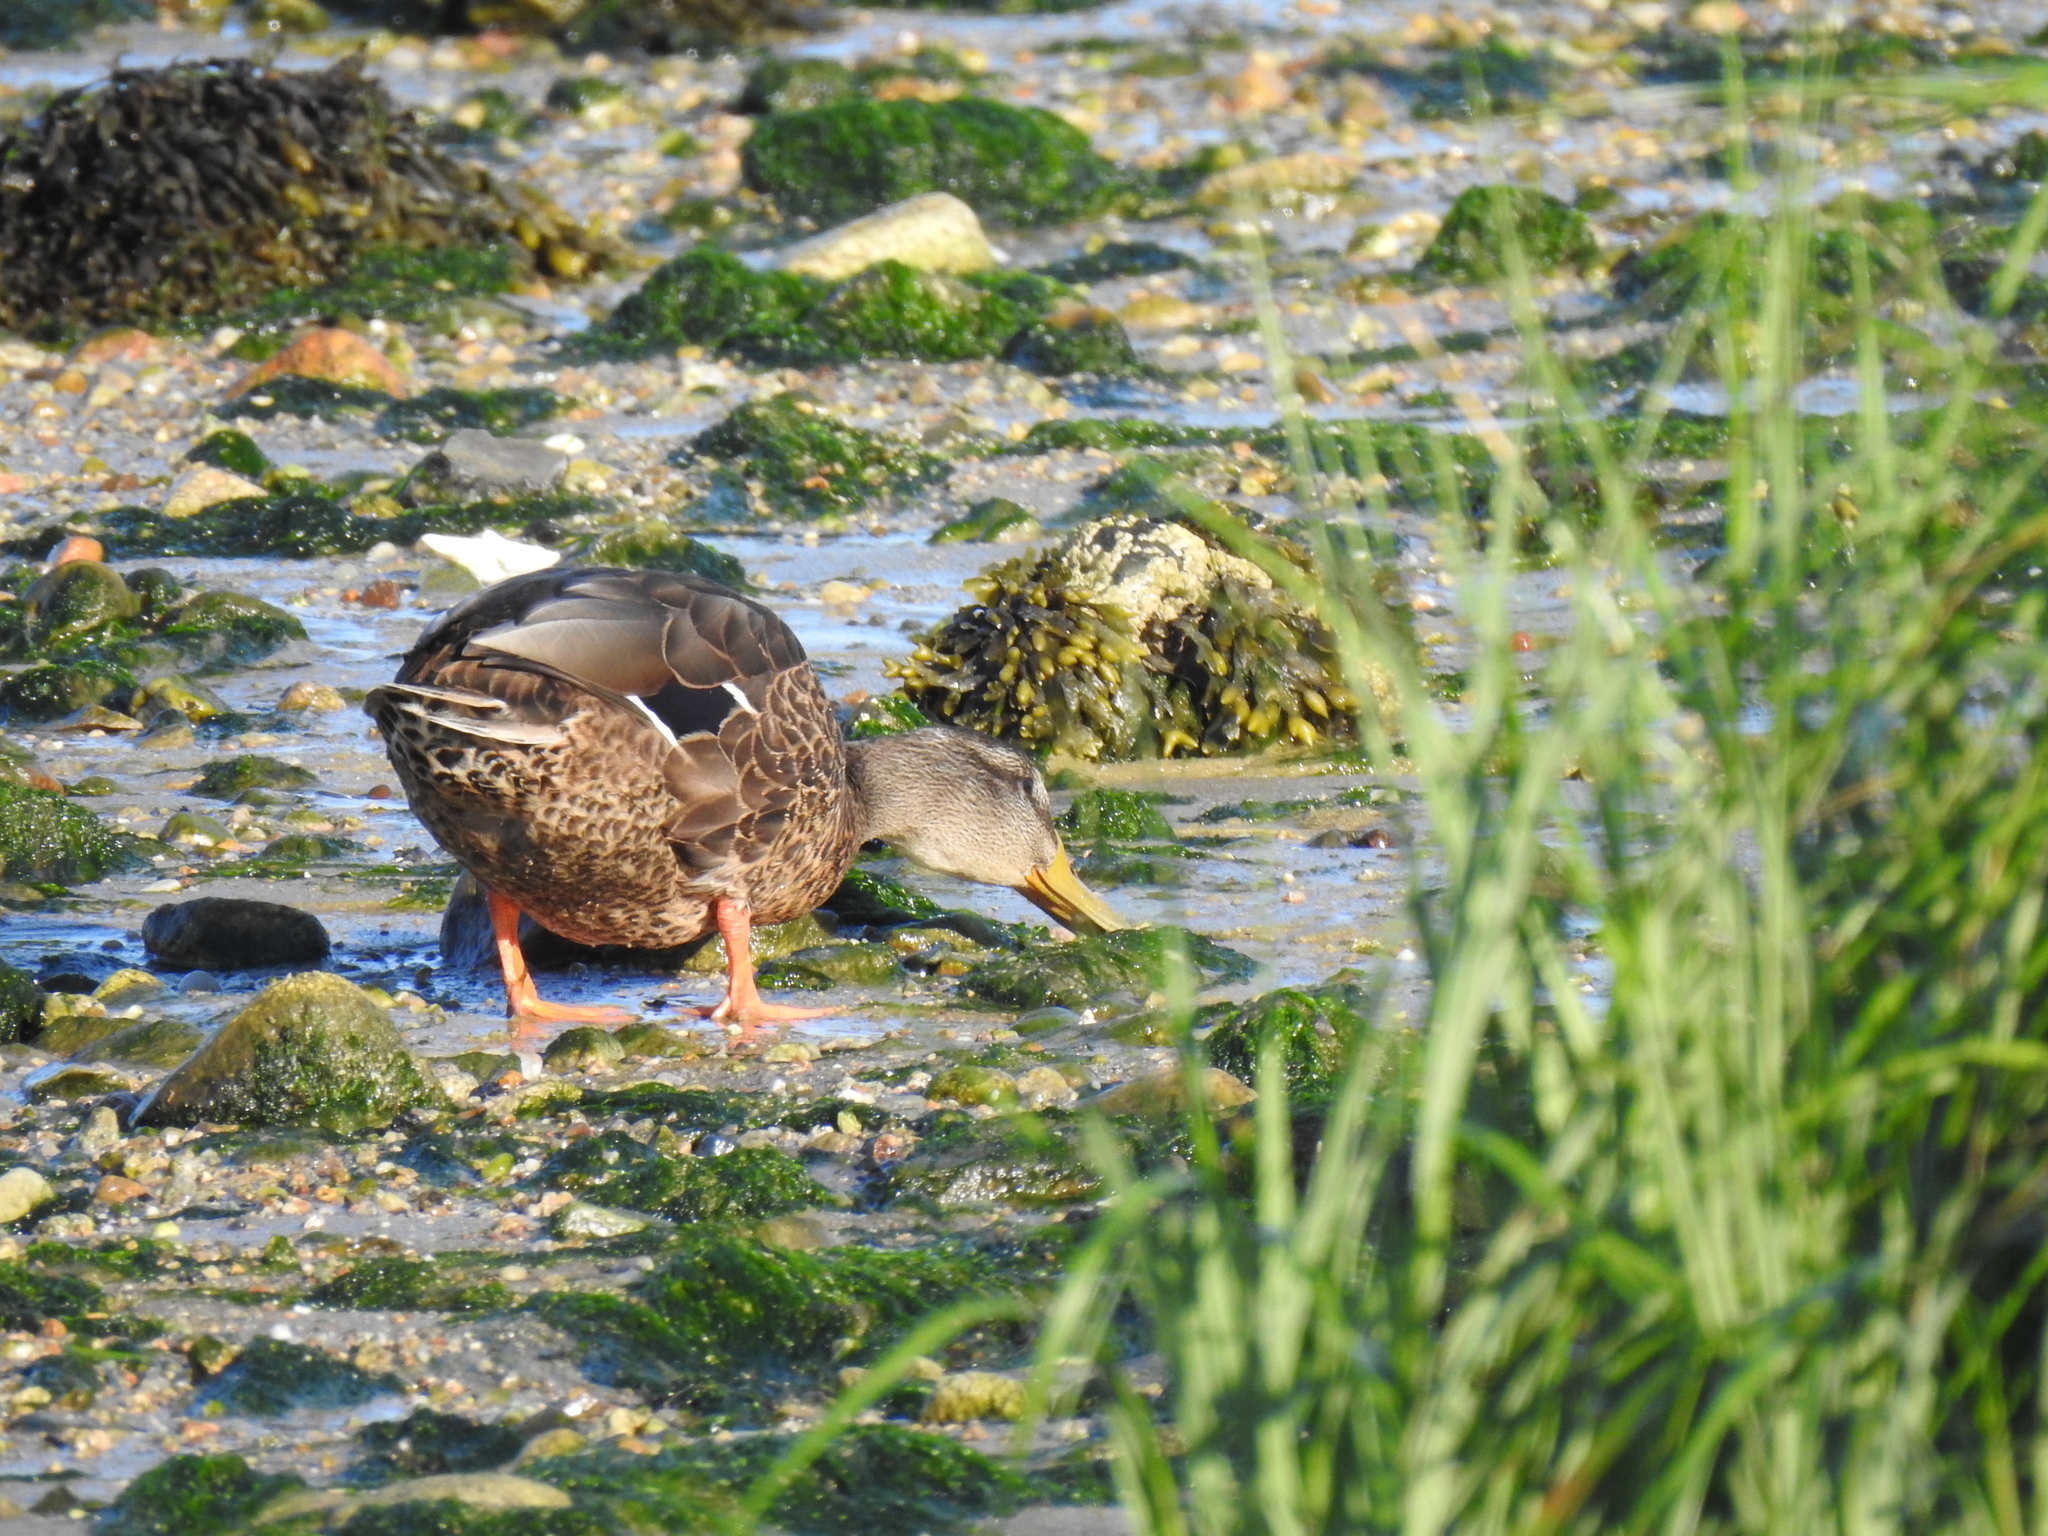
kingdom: Animalia
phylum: Chordata
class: Aves
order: Anseriformes
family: Anatidae
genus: Anas
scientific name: Anas platyrhynchos
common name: Mallard
